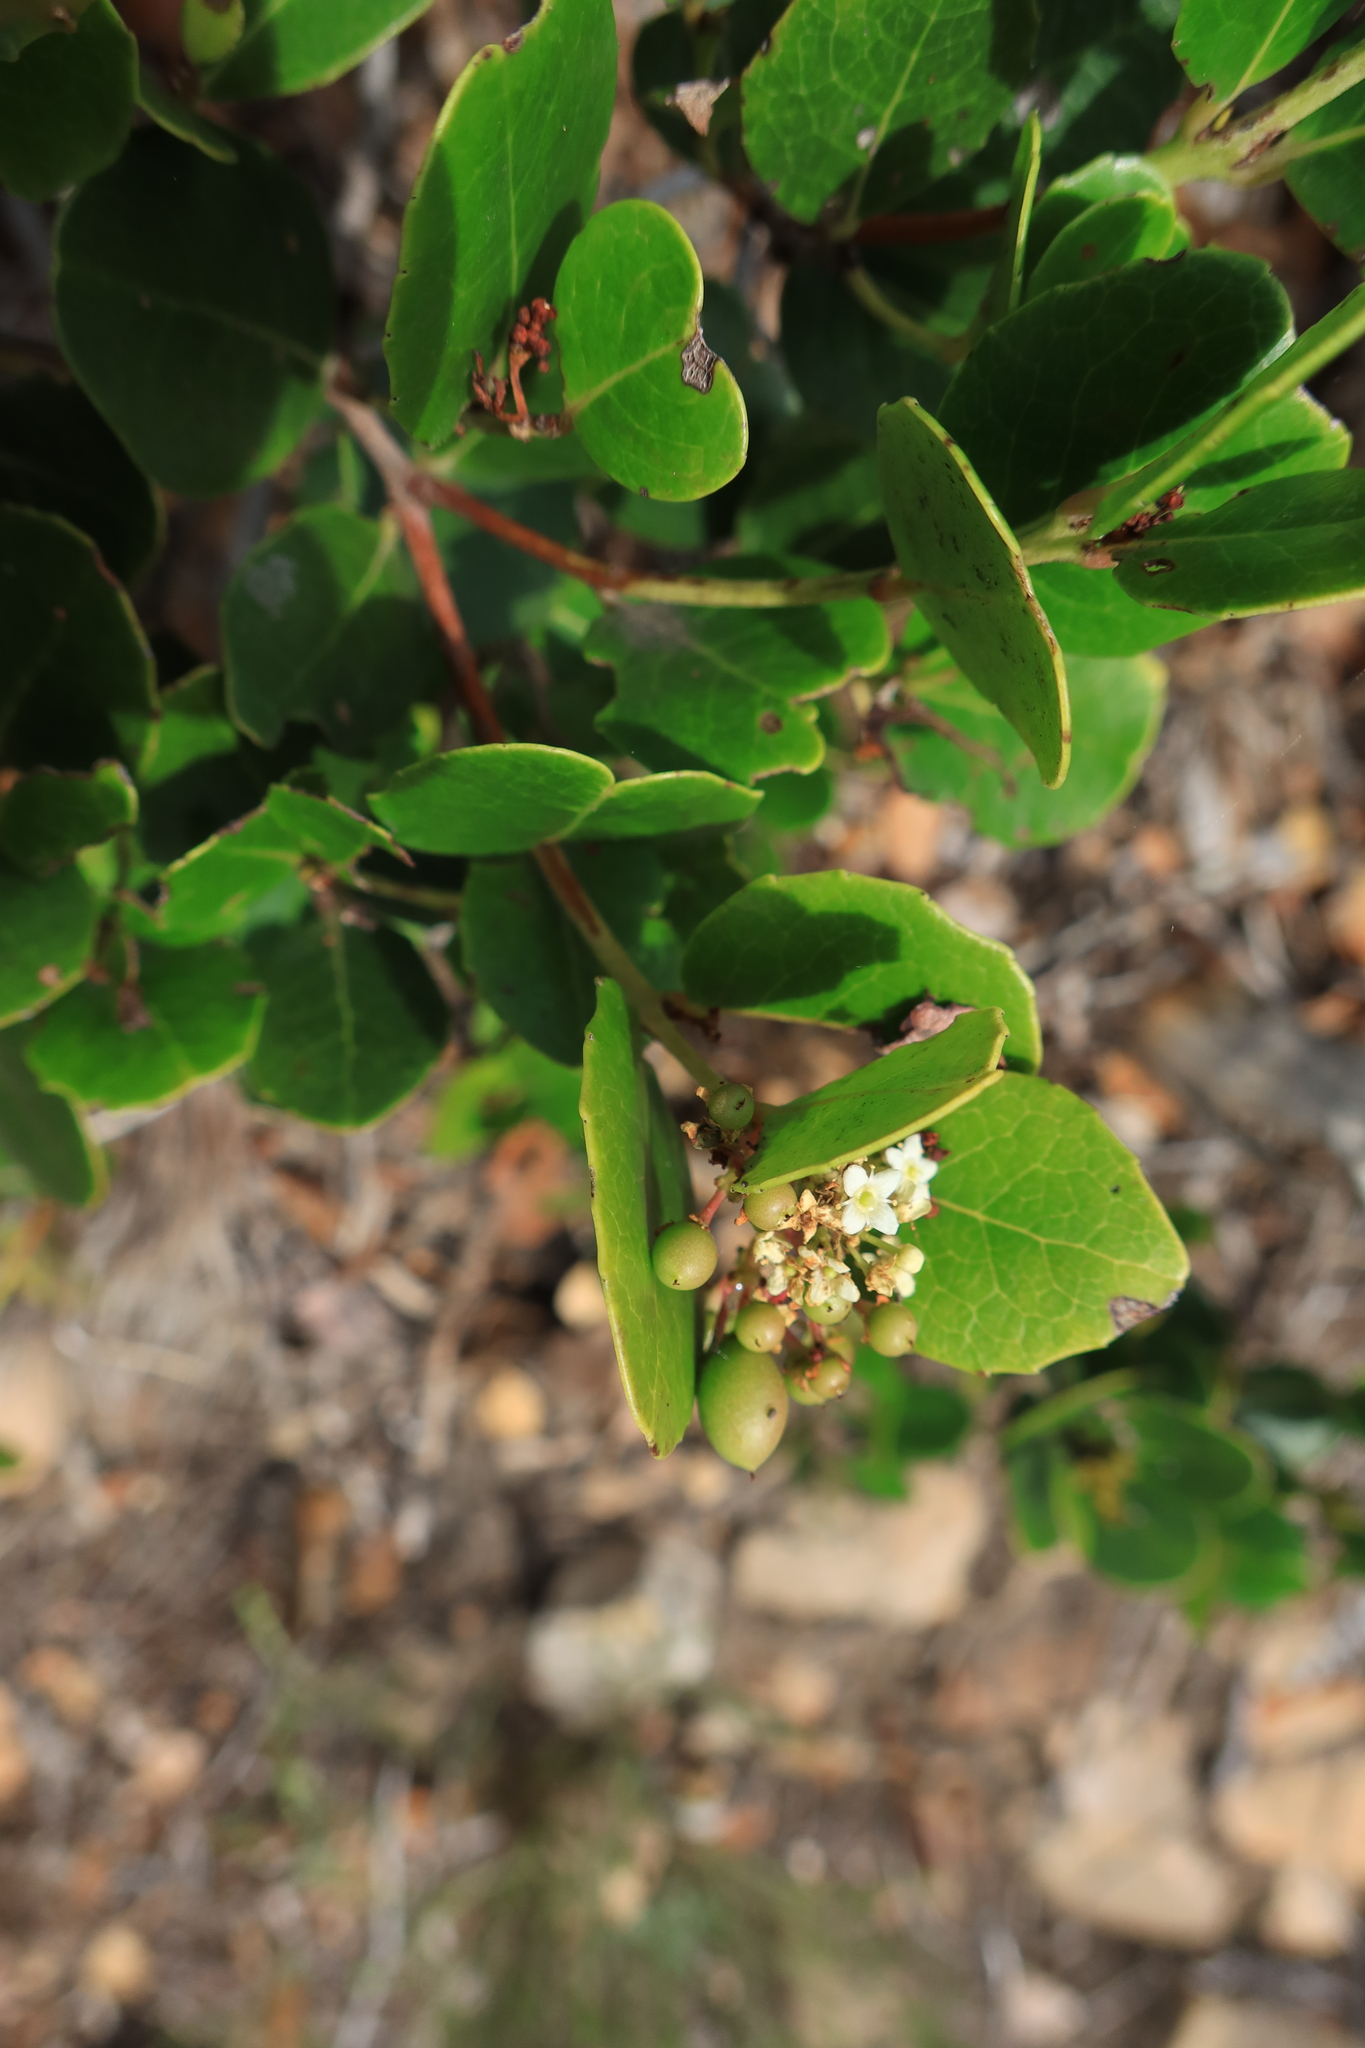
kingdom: Plantae
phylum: Tracheophyta
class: Magnoliopsida
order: Celastrales
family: Celastraceae
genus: Cassine
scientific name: Cassine peragua
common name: Cape saffron
